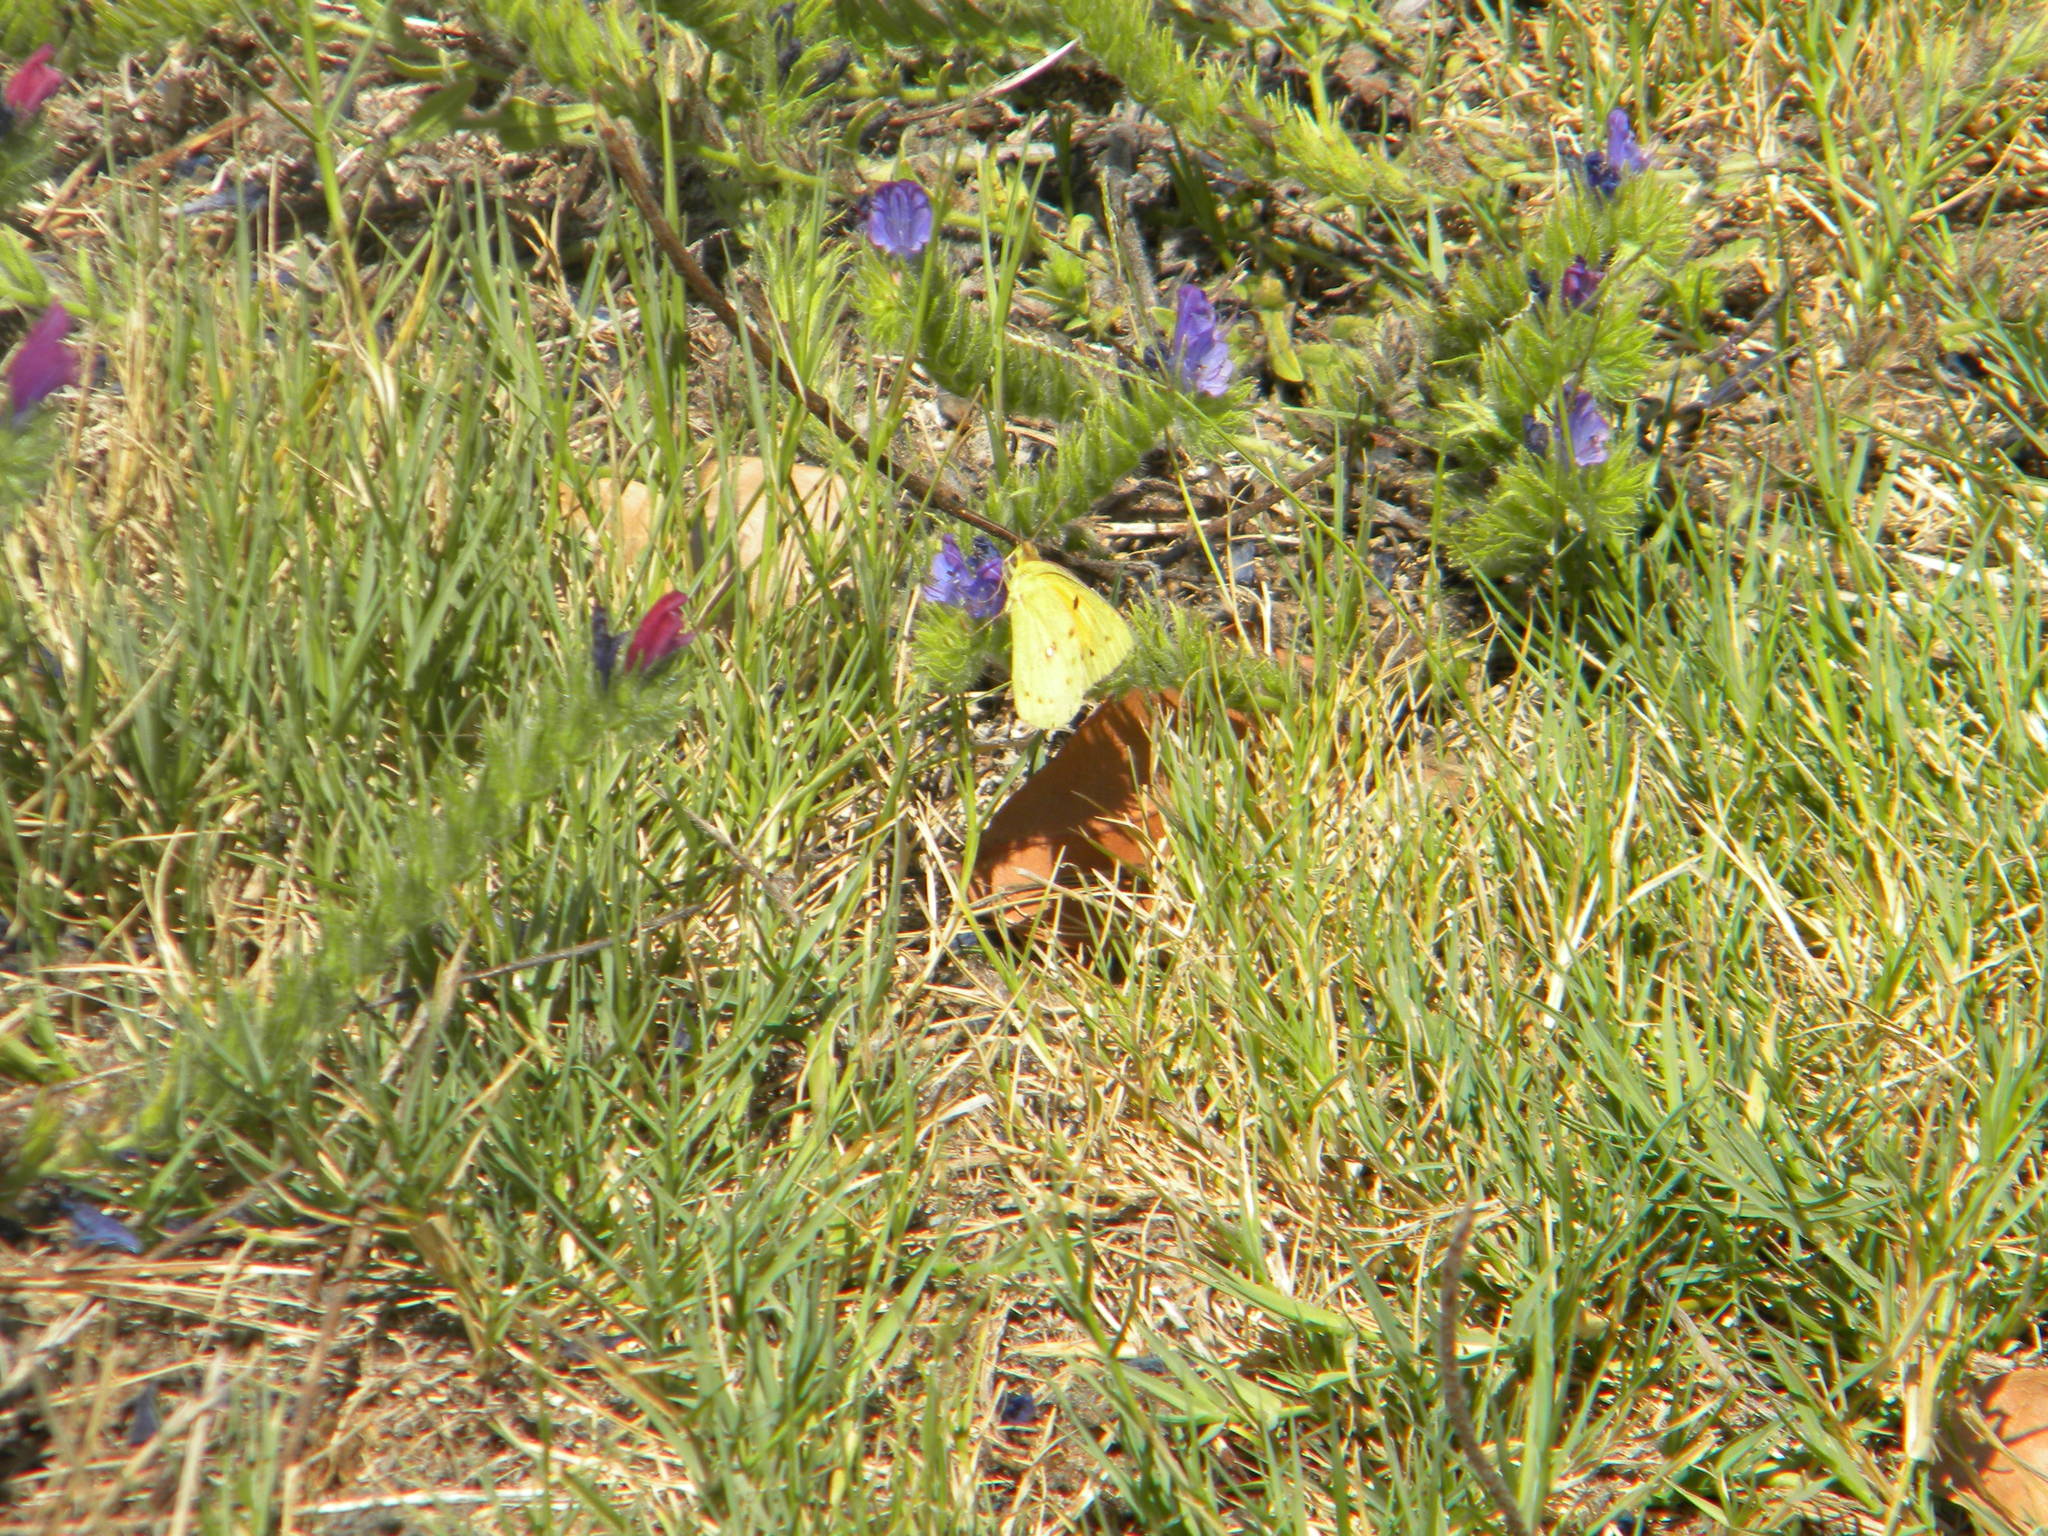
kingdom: Animalia
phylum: Arthropoda
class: Insecta
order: Lepidoptera
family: Pieridae
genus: Colias
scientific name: Colias electo
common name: African clouded yellow
